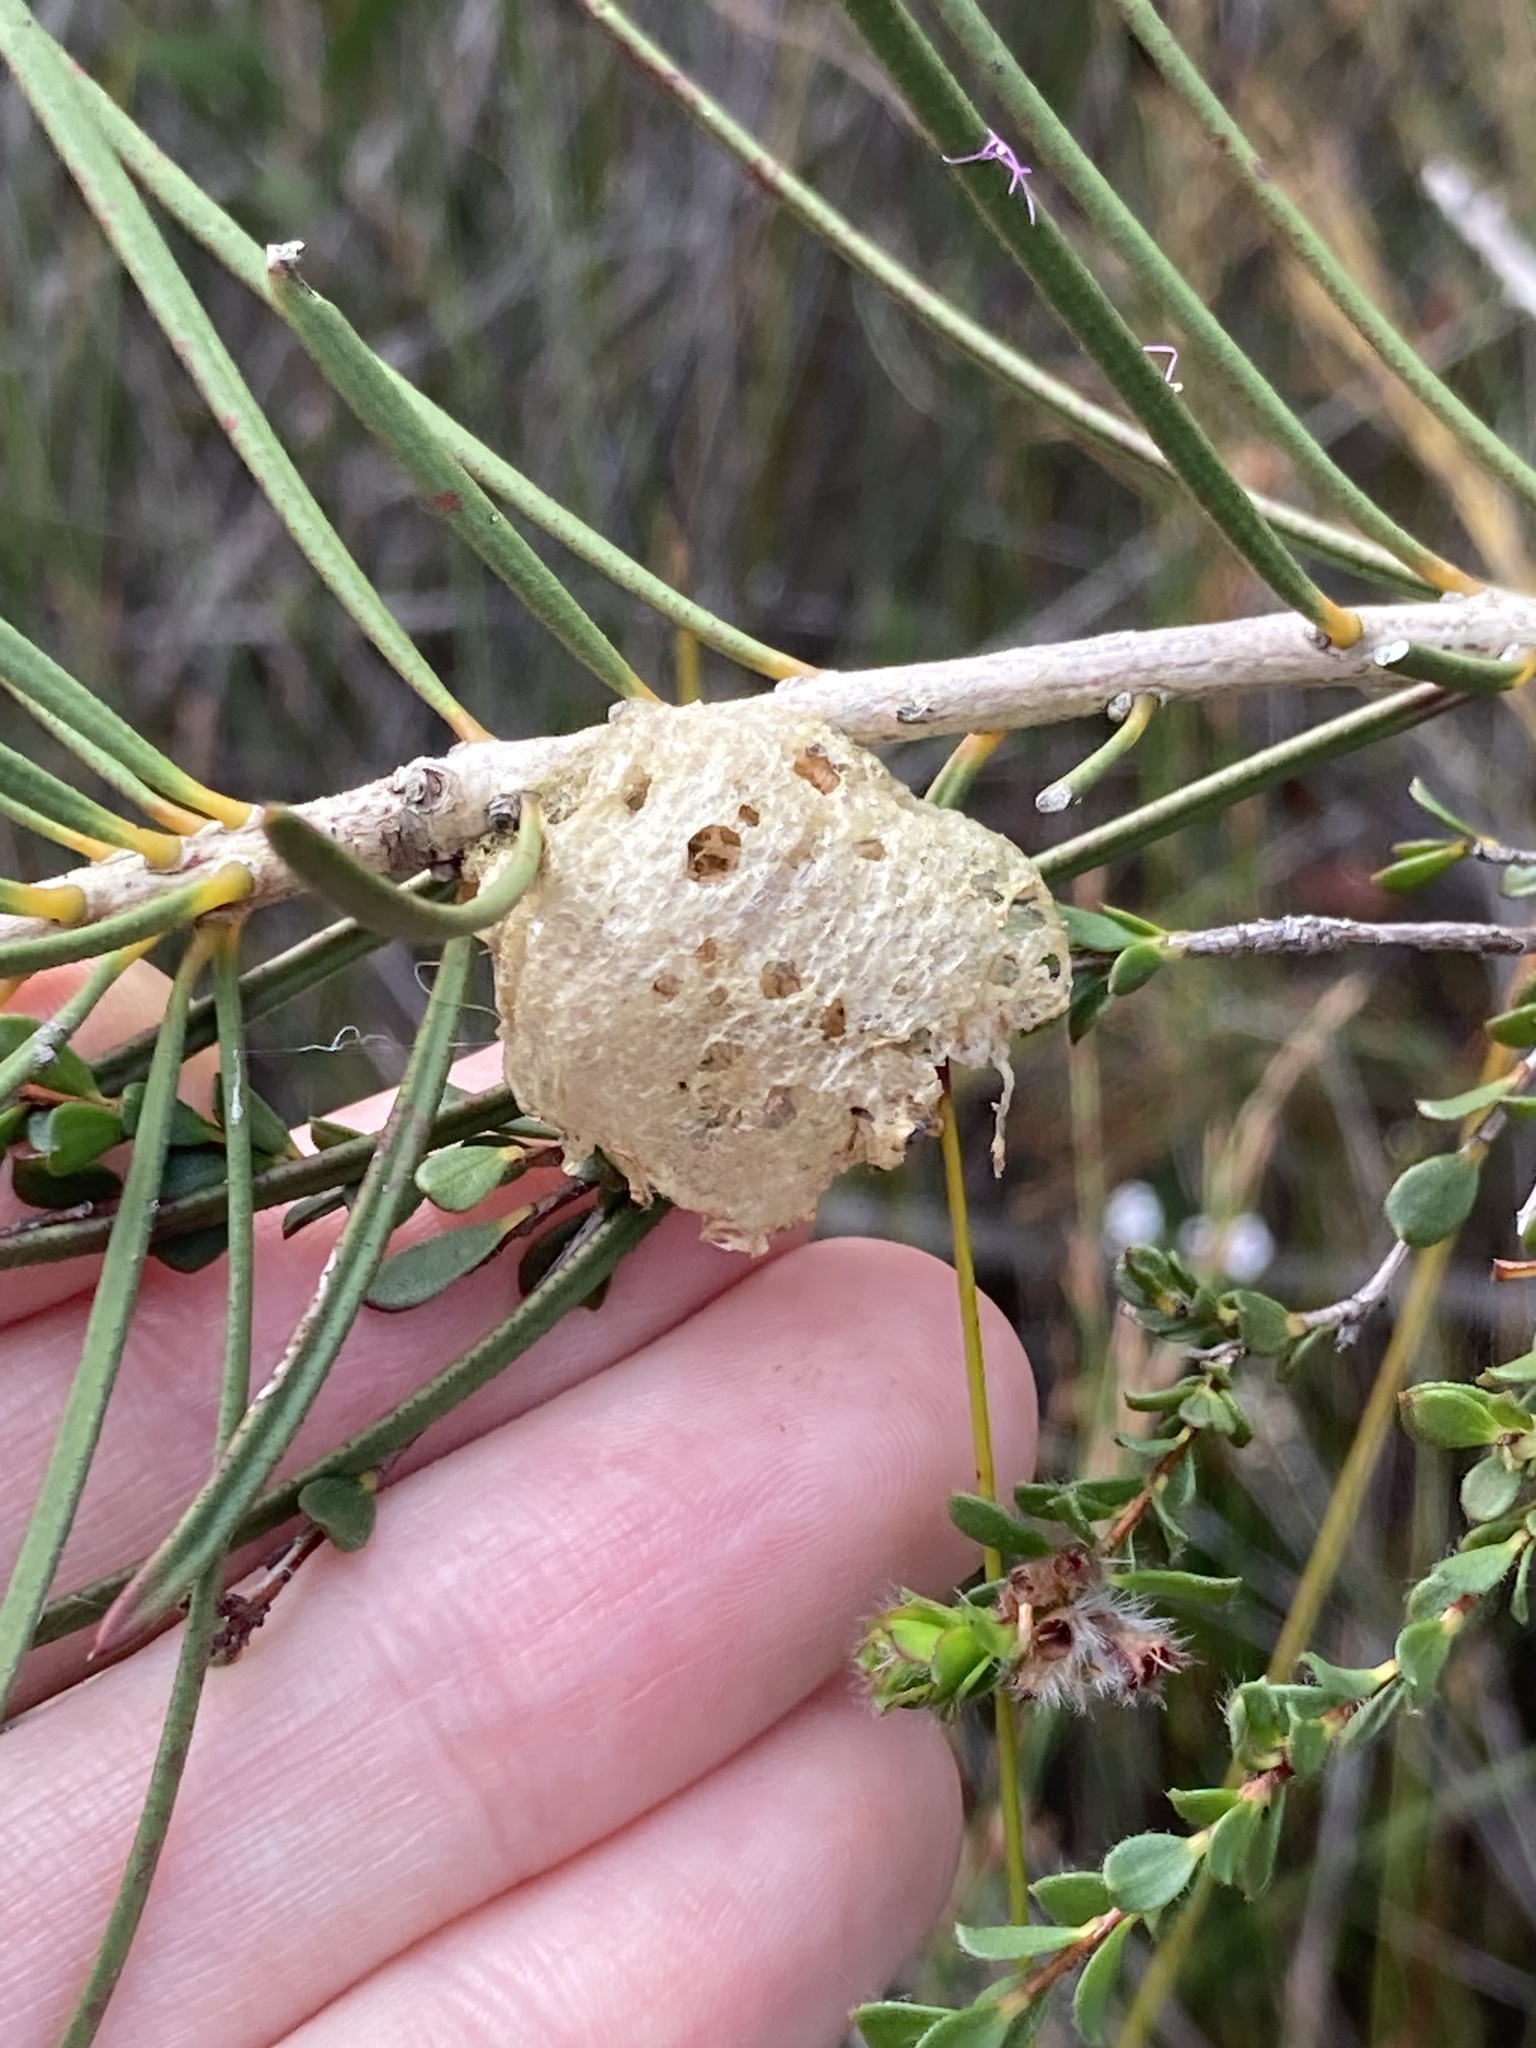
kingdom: Animalia
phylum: Arthropoda
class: Insecta
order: Mantodea
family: Mantidae
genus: Archimantis
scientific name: Archimantis latistyla
